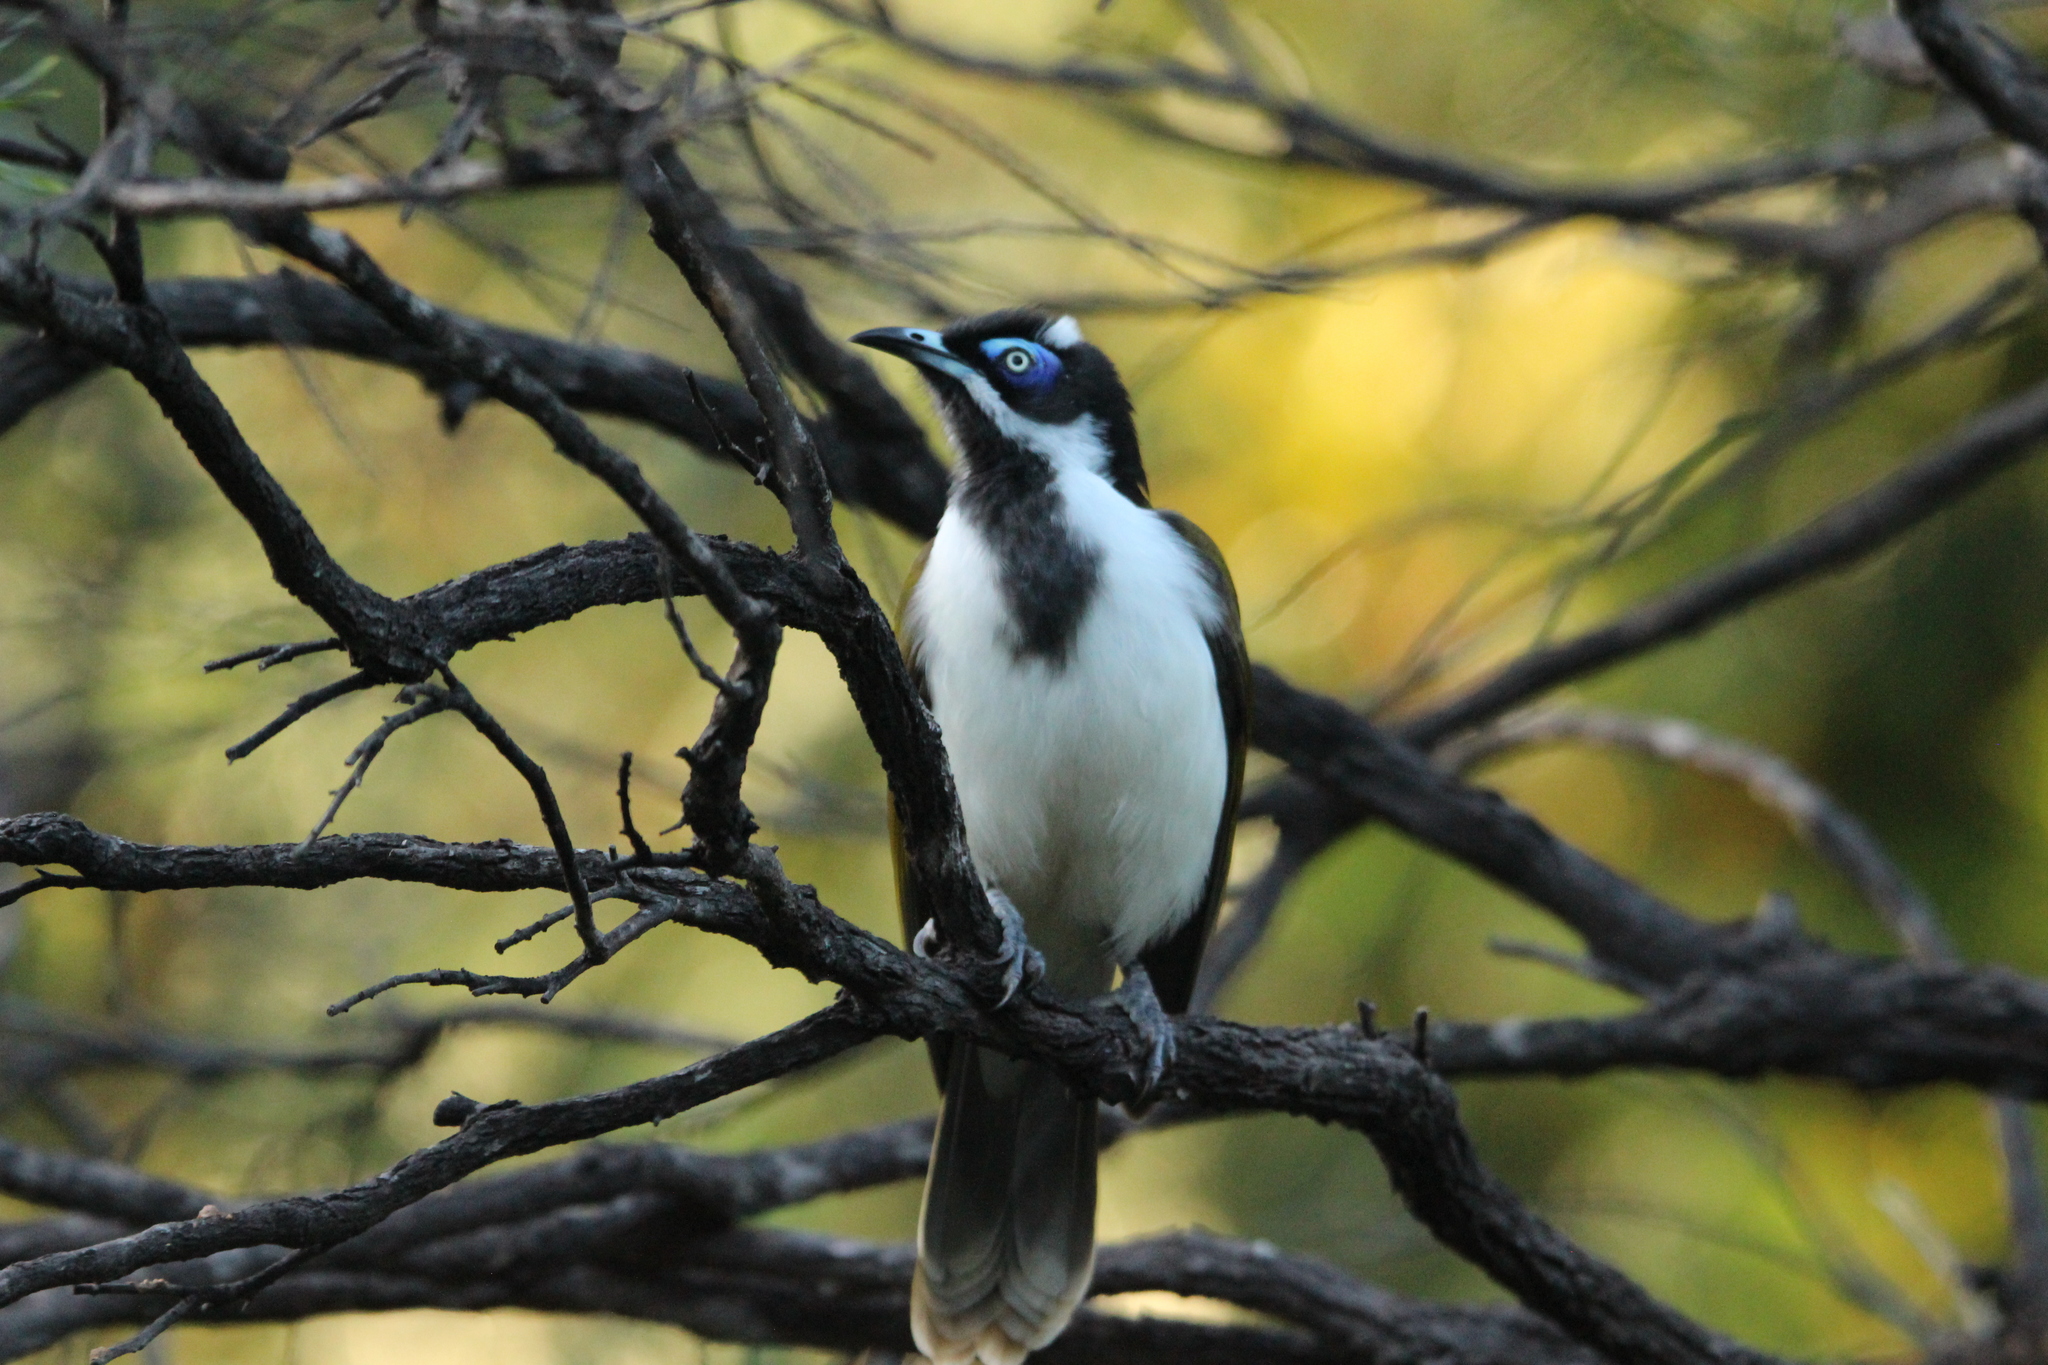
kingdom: Animalia
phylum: Chordata
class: Aves
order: Passeriformes
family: Meliphagidae
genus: Entomyzon
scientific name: Entomyzon cyanotis
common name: Blue-faced honeyeater
